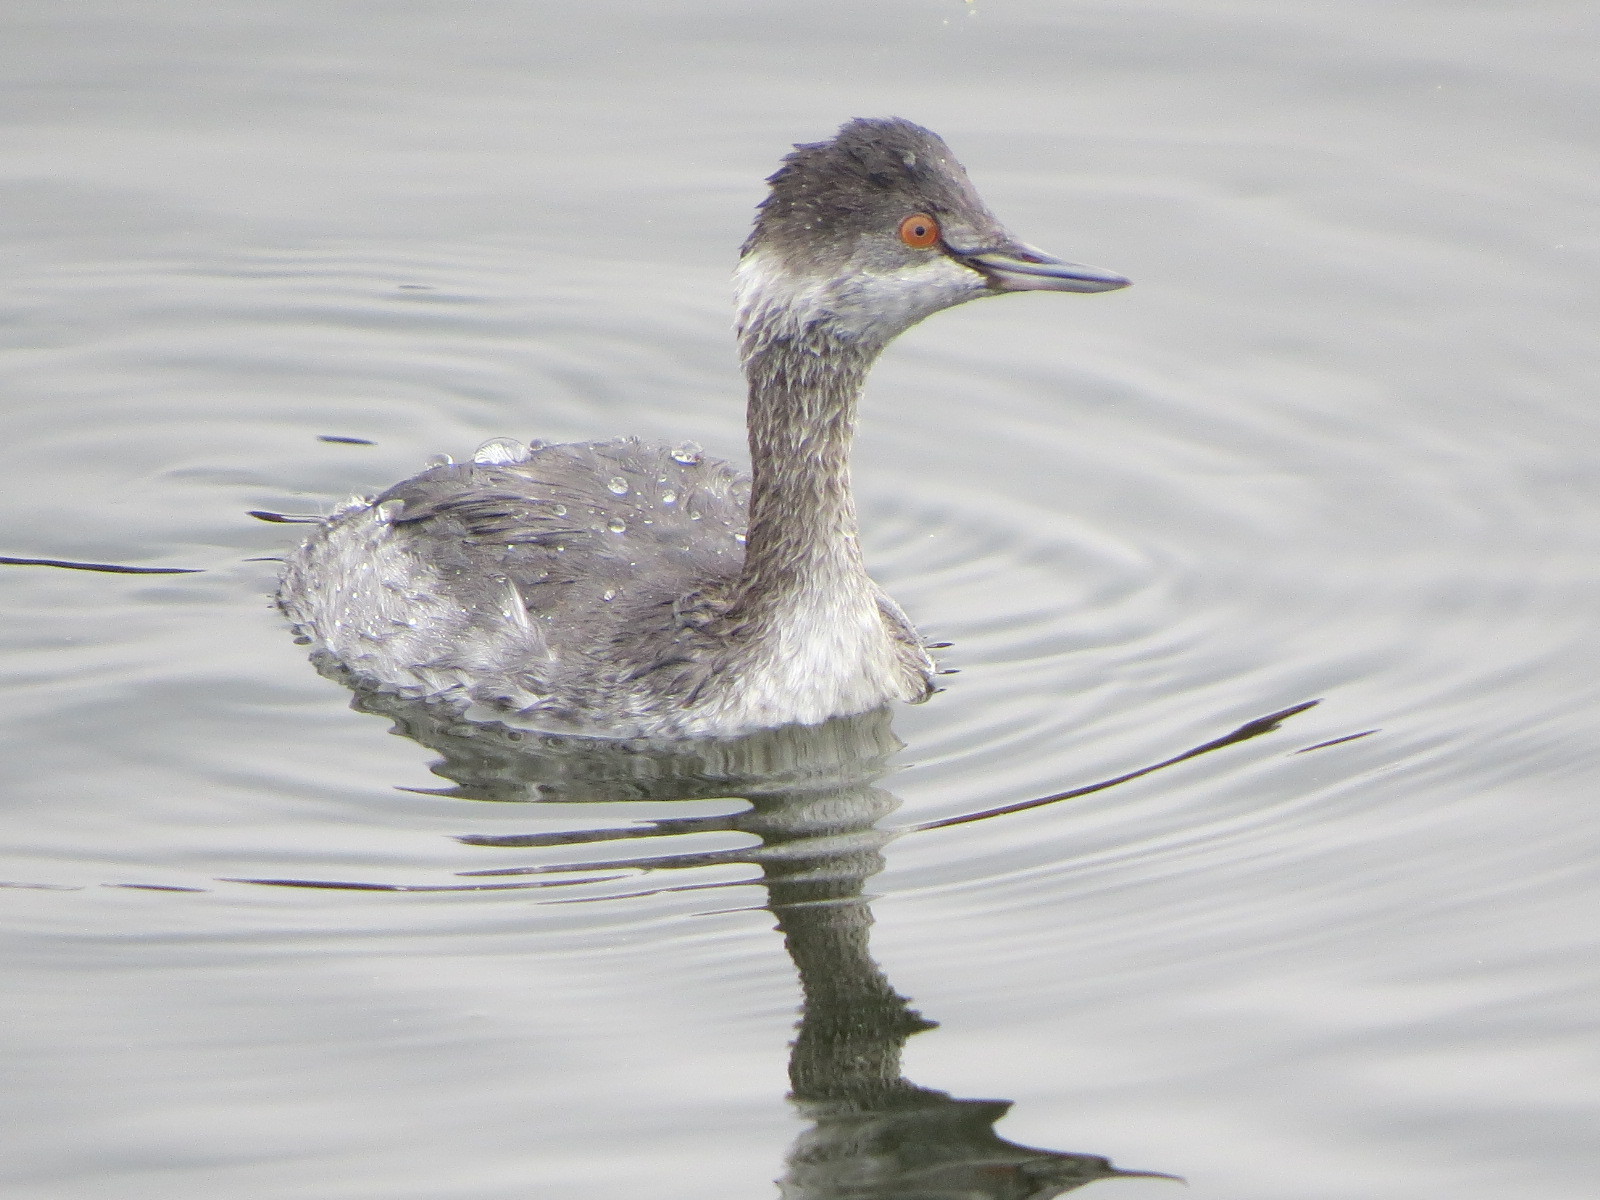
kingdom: Animalia
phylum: Chordata
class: Aves
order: Podicipediformes
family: Podicipedidae
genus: Podiceps
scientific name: Podiceps nigricollis
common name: Black-necked grebe
